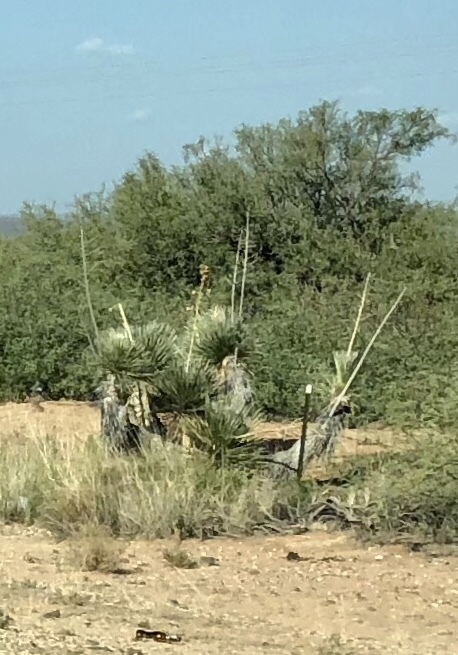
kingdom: Plantae
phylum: Tracheophyta
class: Liliopsida
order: Asparagales
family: Asparagaceae
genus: Yucca
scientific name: Yucca elata
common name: Palmella
